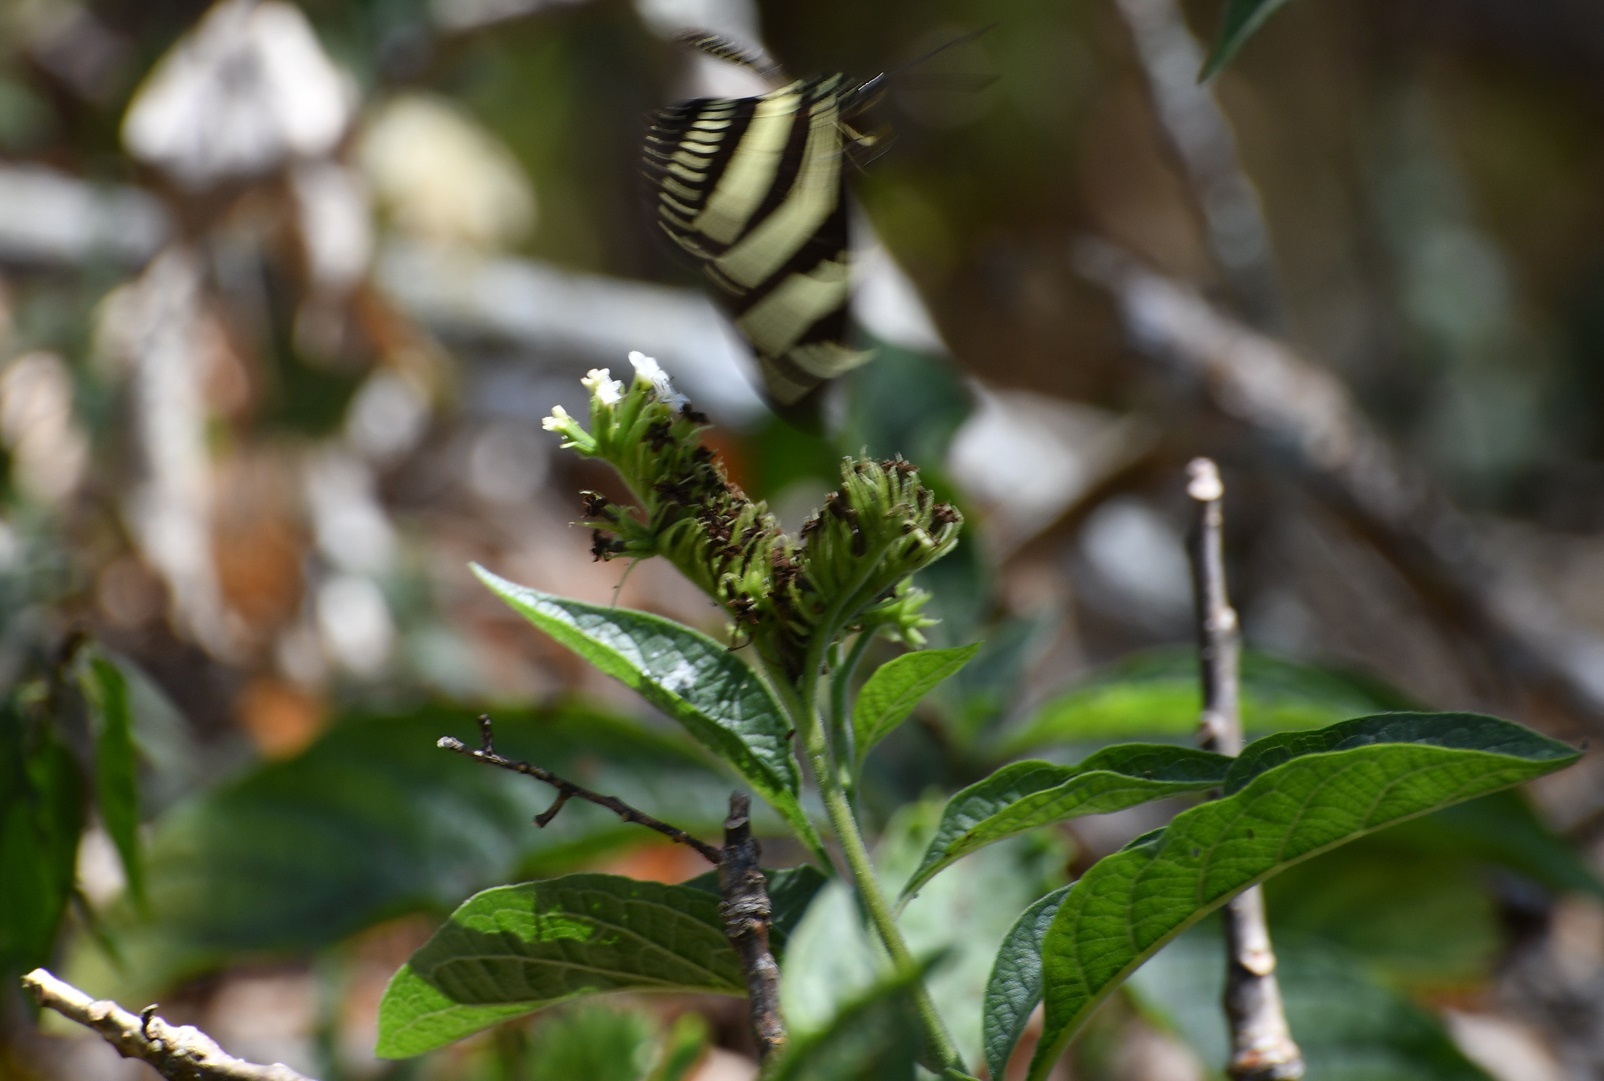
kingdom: Plantae
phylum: Tracheophyta
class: Magnoliopsida
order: Boraginales
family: Heliotropiaceae
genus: Heliotropium
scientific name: Heliotropium
